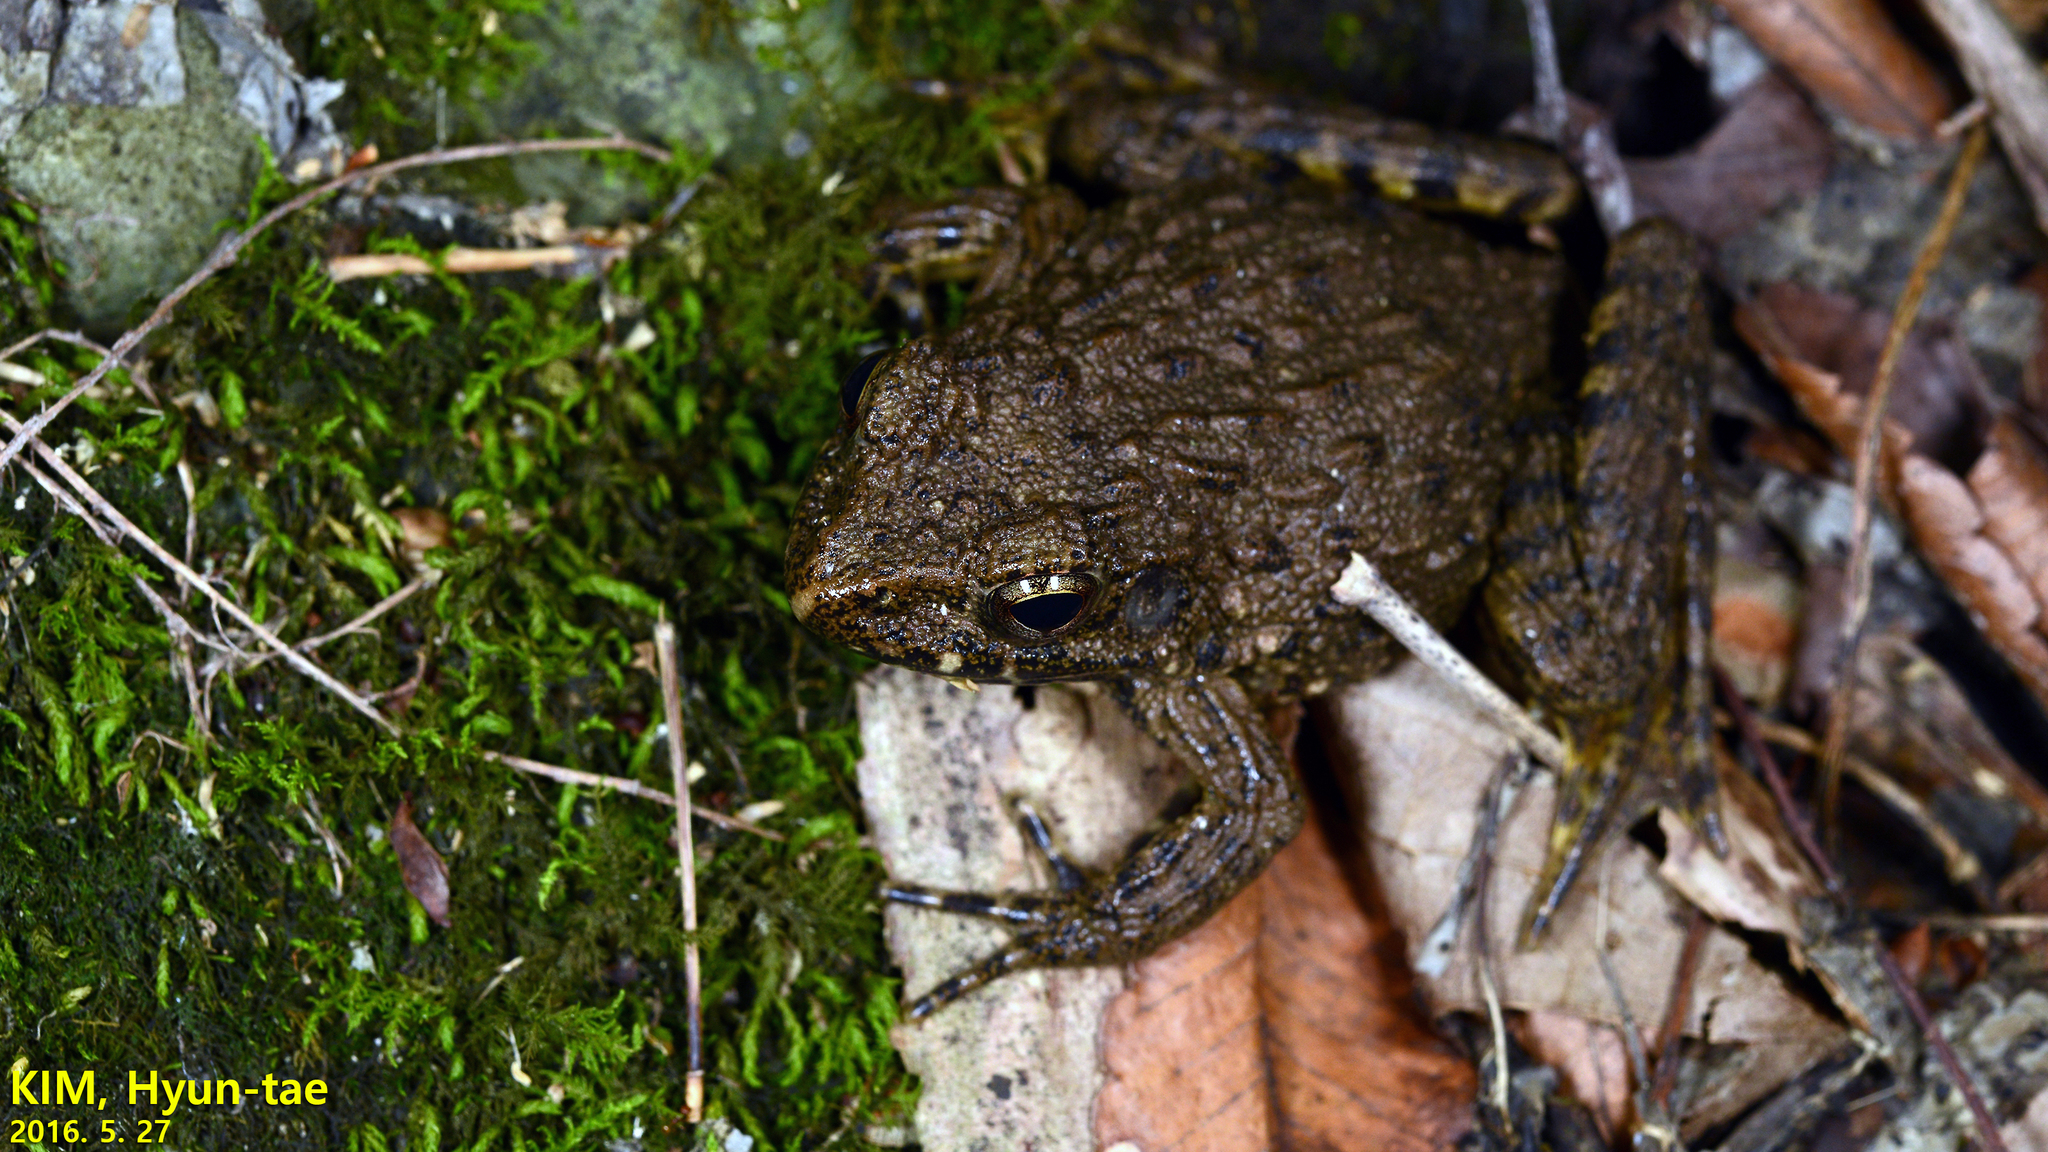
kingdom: Animalia
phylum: Chordata
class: Amphibia
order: Anura
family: Ranidae
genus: Glandirana
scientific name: Glandirana emeljanovi
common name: Northeast china rough-skinned frog
